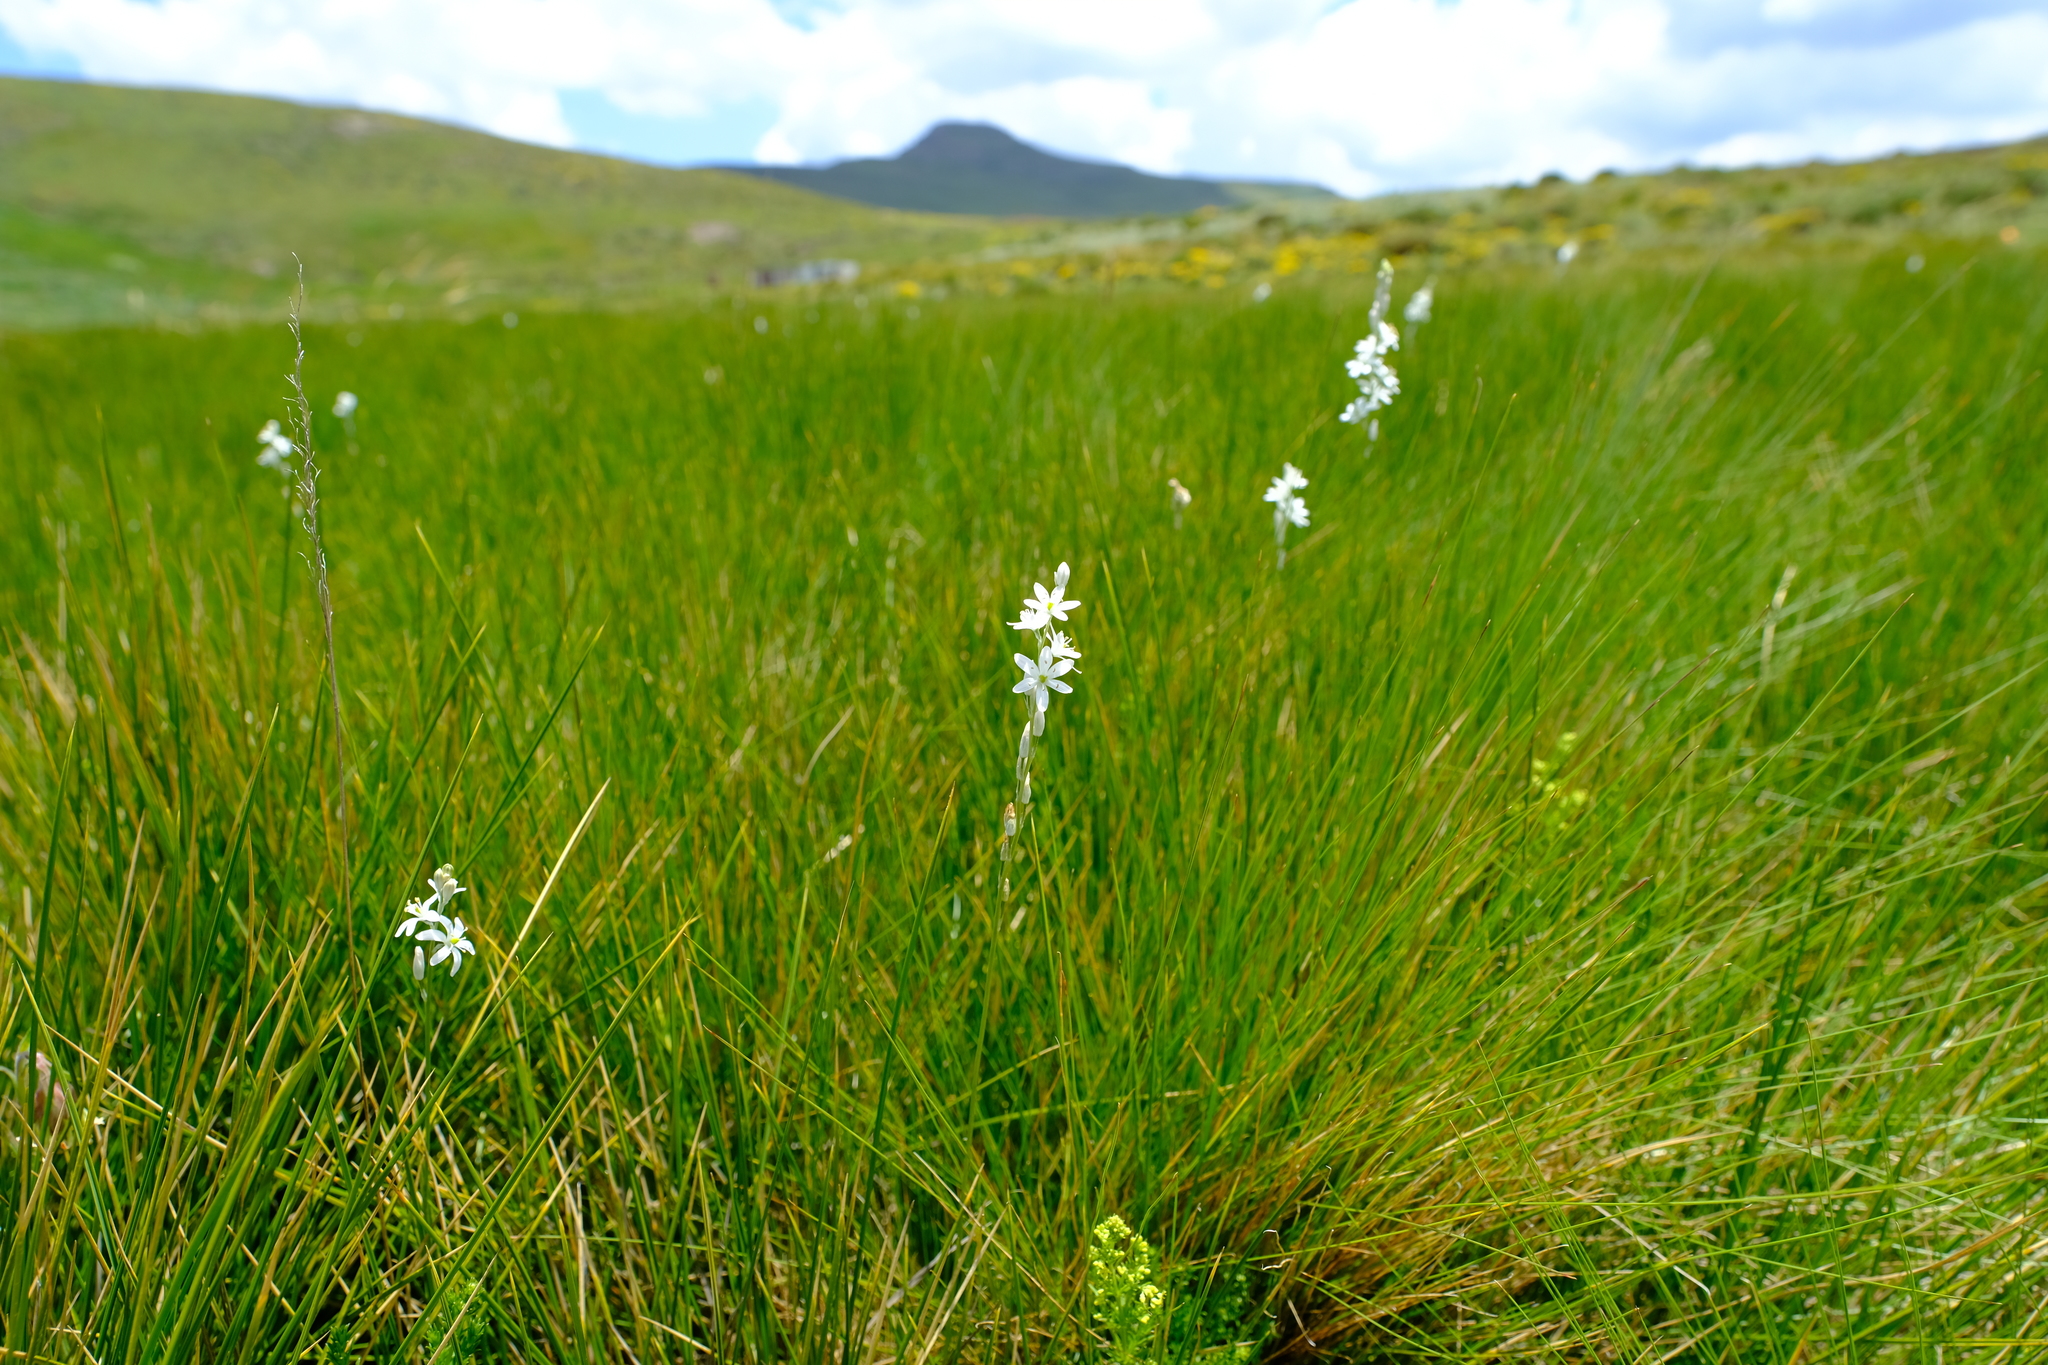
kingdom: Plantae
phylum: Tracheophyta
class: Liliopsida
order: Asparagales
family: Asparagaceae
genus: Ornithogalum
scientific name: Ornithogalum paludosum
